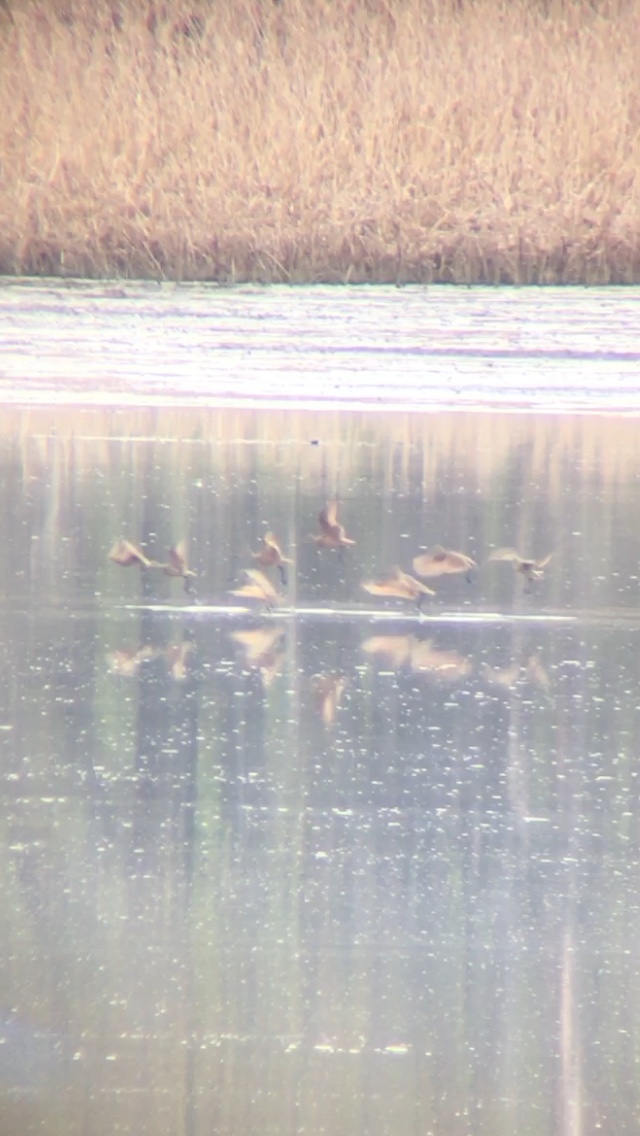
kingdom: Animalia
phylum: Chordata
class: Aves
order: Charadriiformes
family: Scolopacidae
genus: Limosa
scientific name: Limosa fedoa
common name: Marbled godwit
